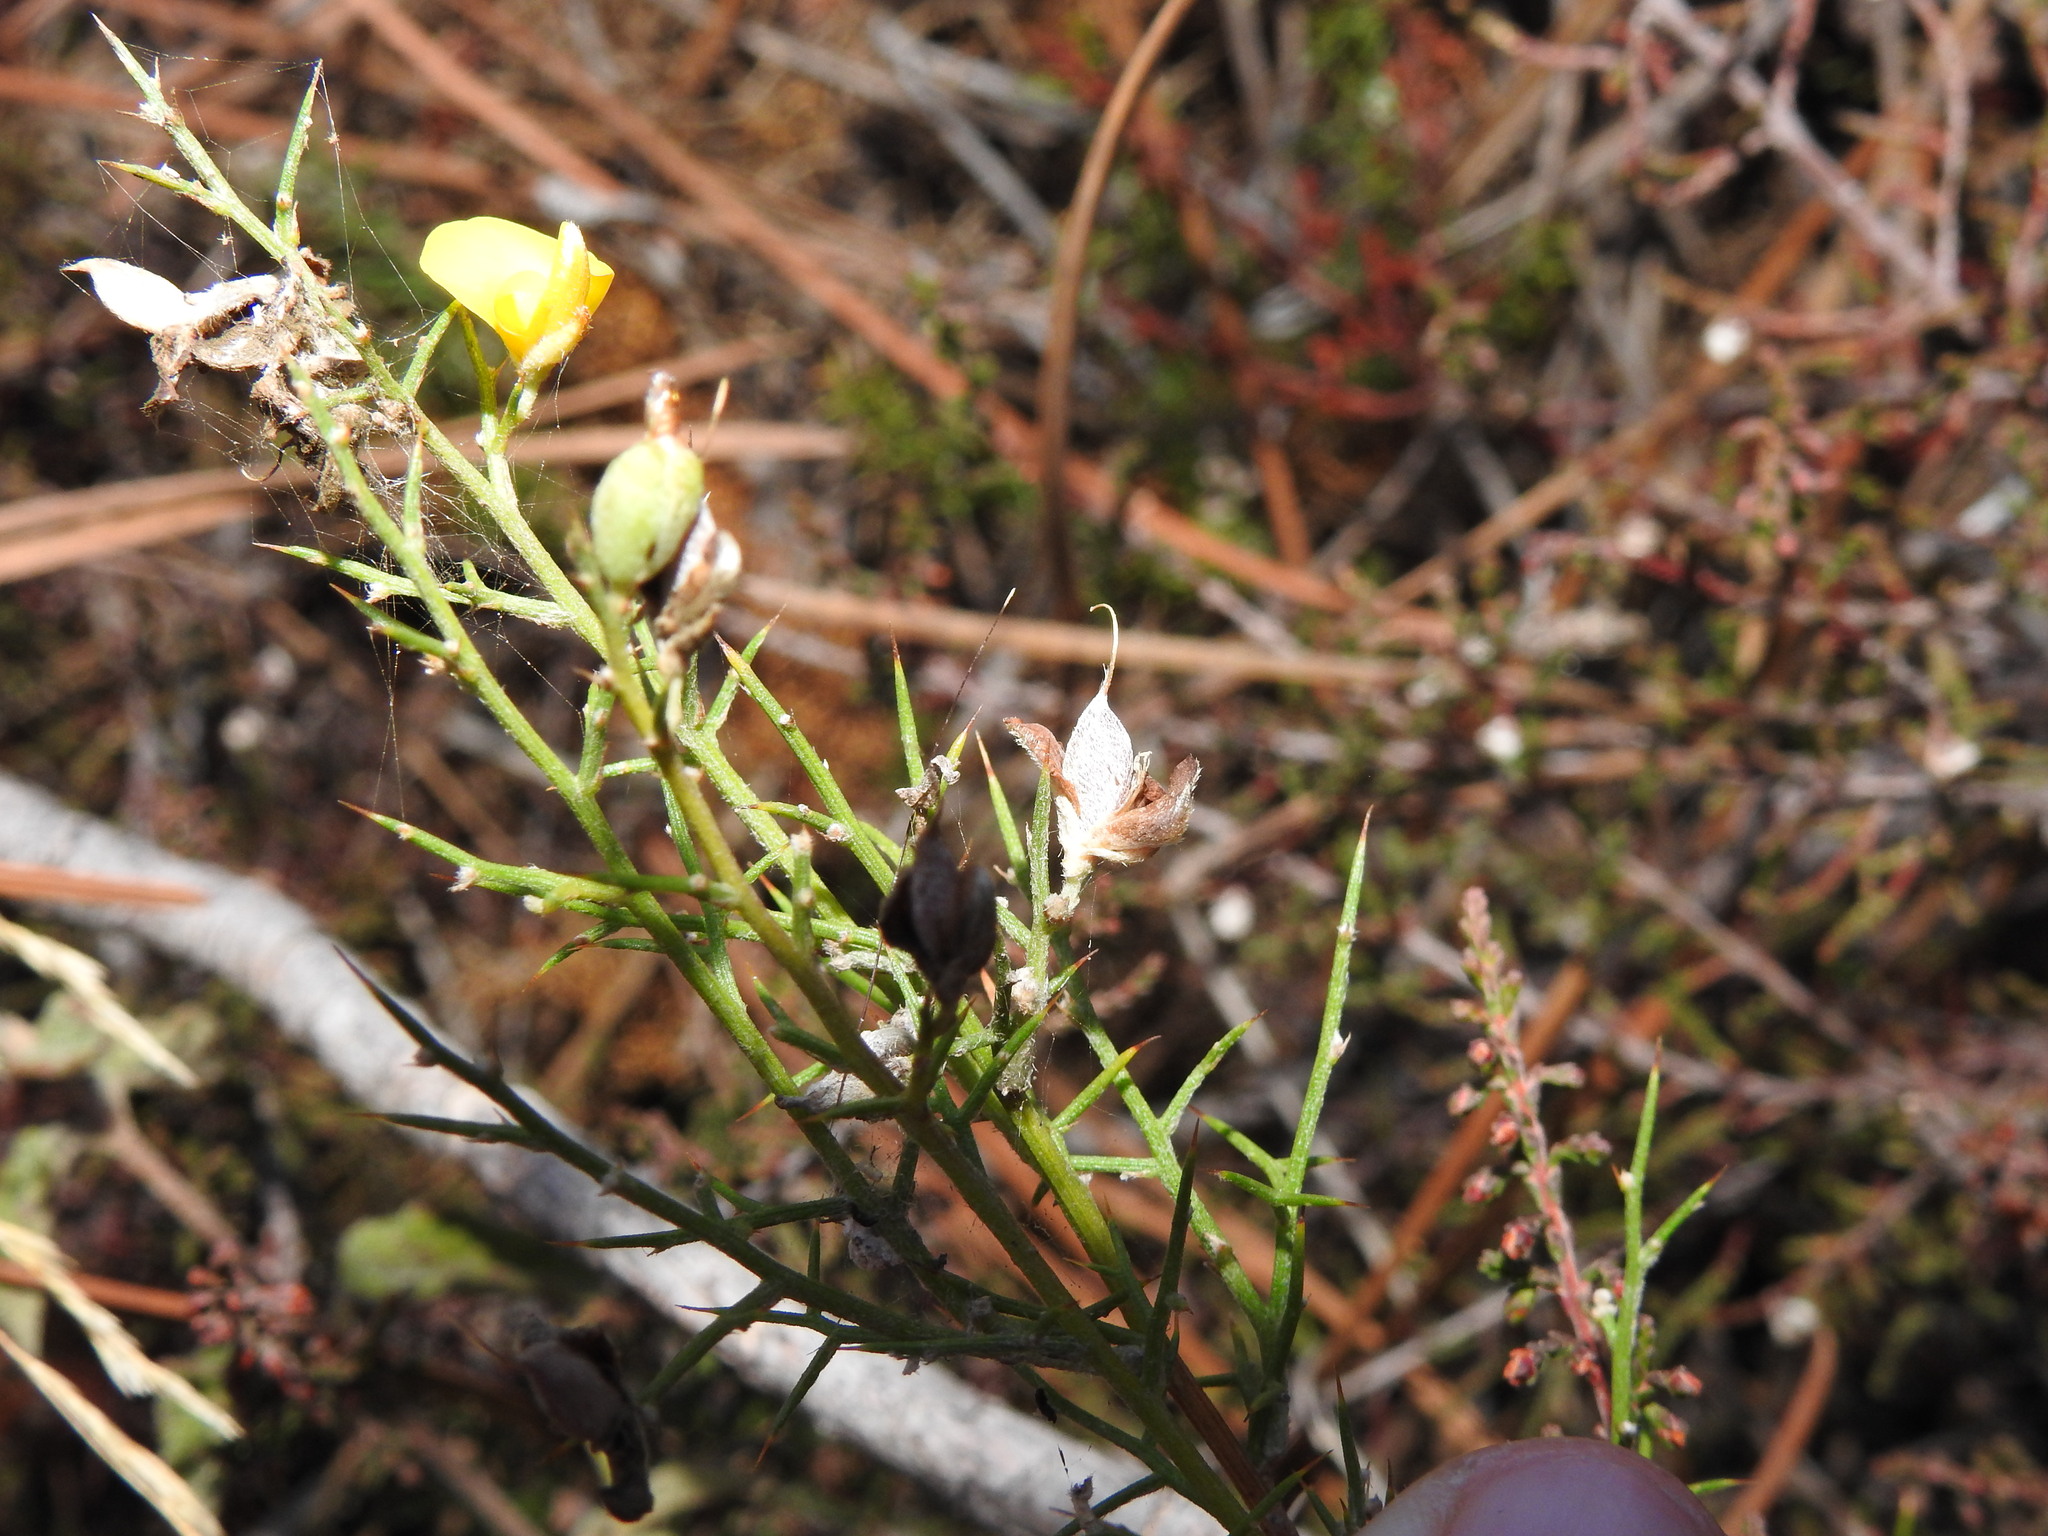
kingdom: Plantae
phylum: Tracheophyta
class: Magnoliopsida
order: Fabales
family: Fabaceae
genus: Stauracanthus
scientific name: Stauracanthus boivinii
